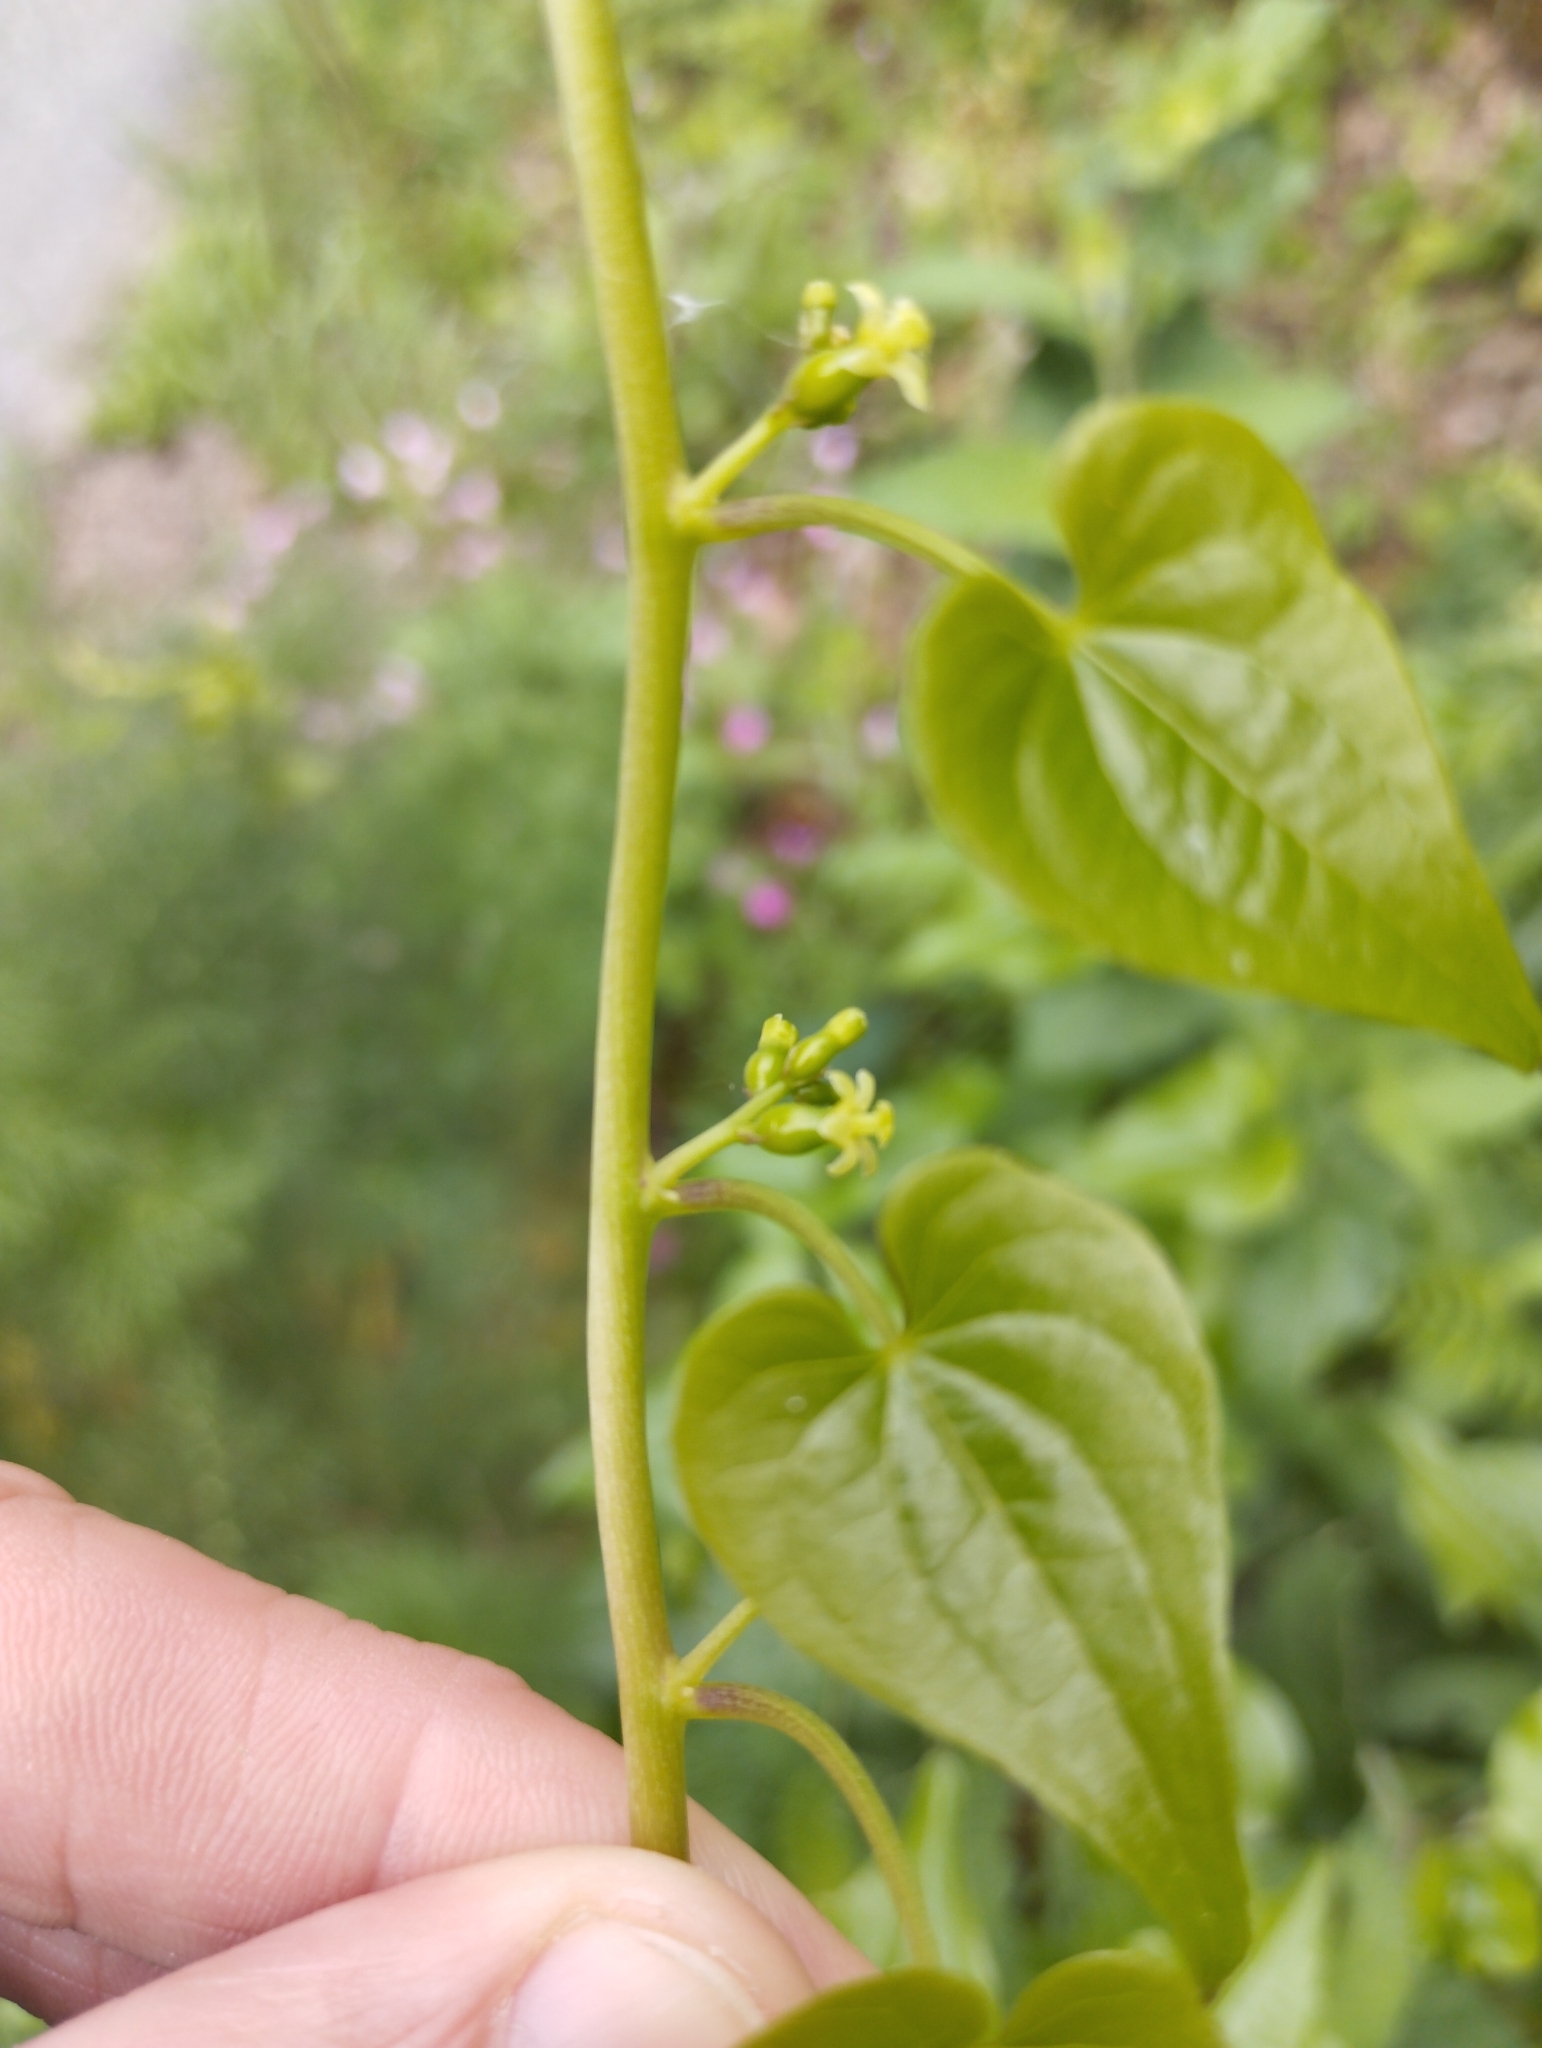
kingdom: Plantae
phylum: Tracheophyta
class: Liliopsida
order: Dioscoreales
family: Dioscoreaceae
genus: Dioscorea
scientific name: Dioscorea communis
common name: Black-bindweed
